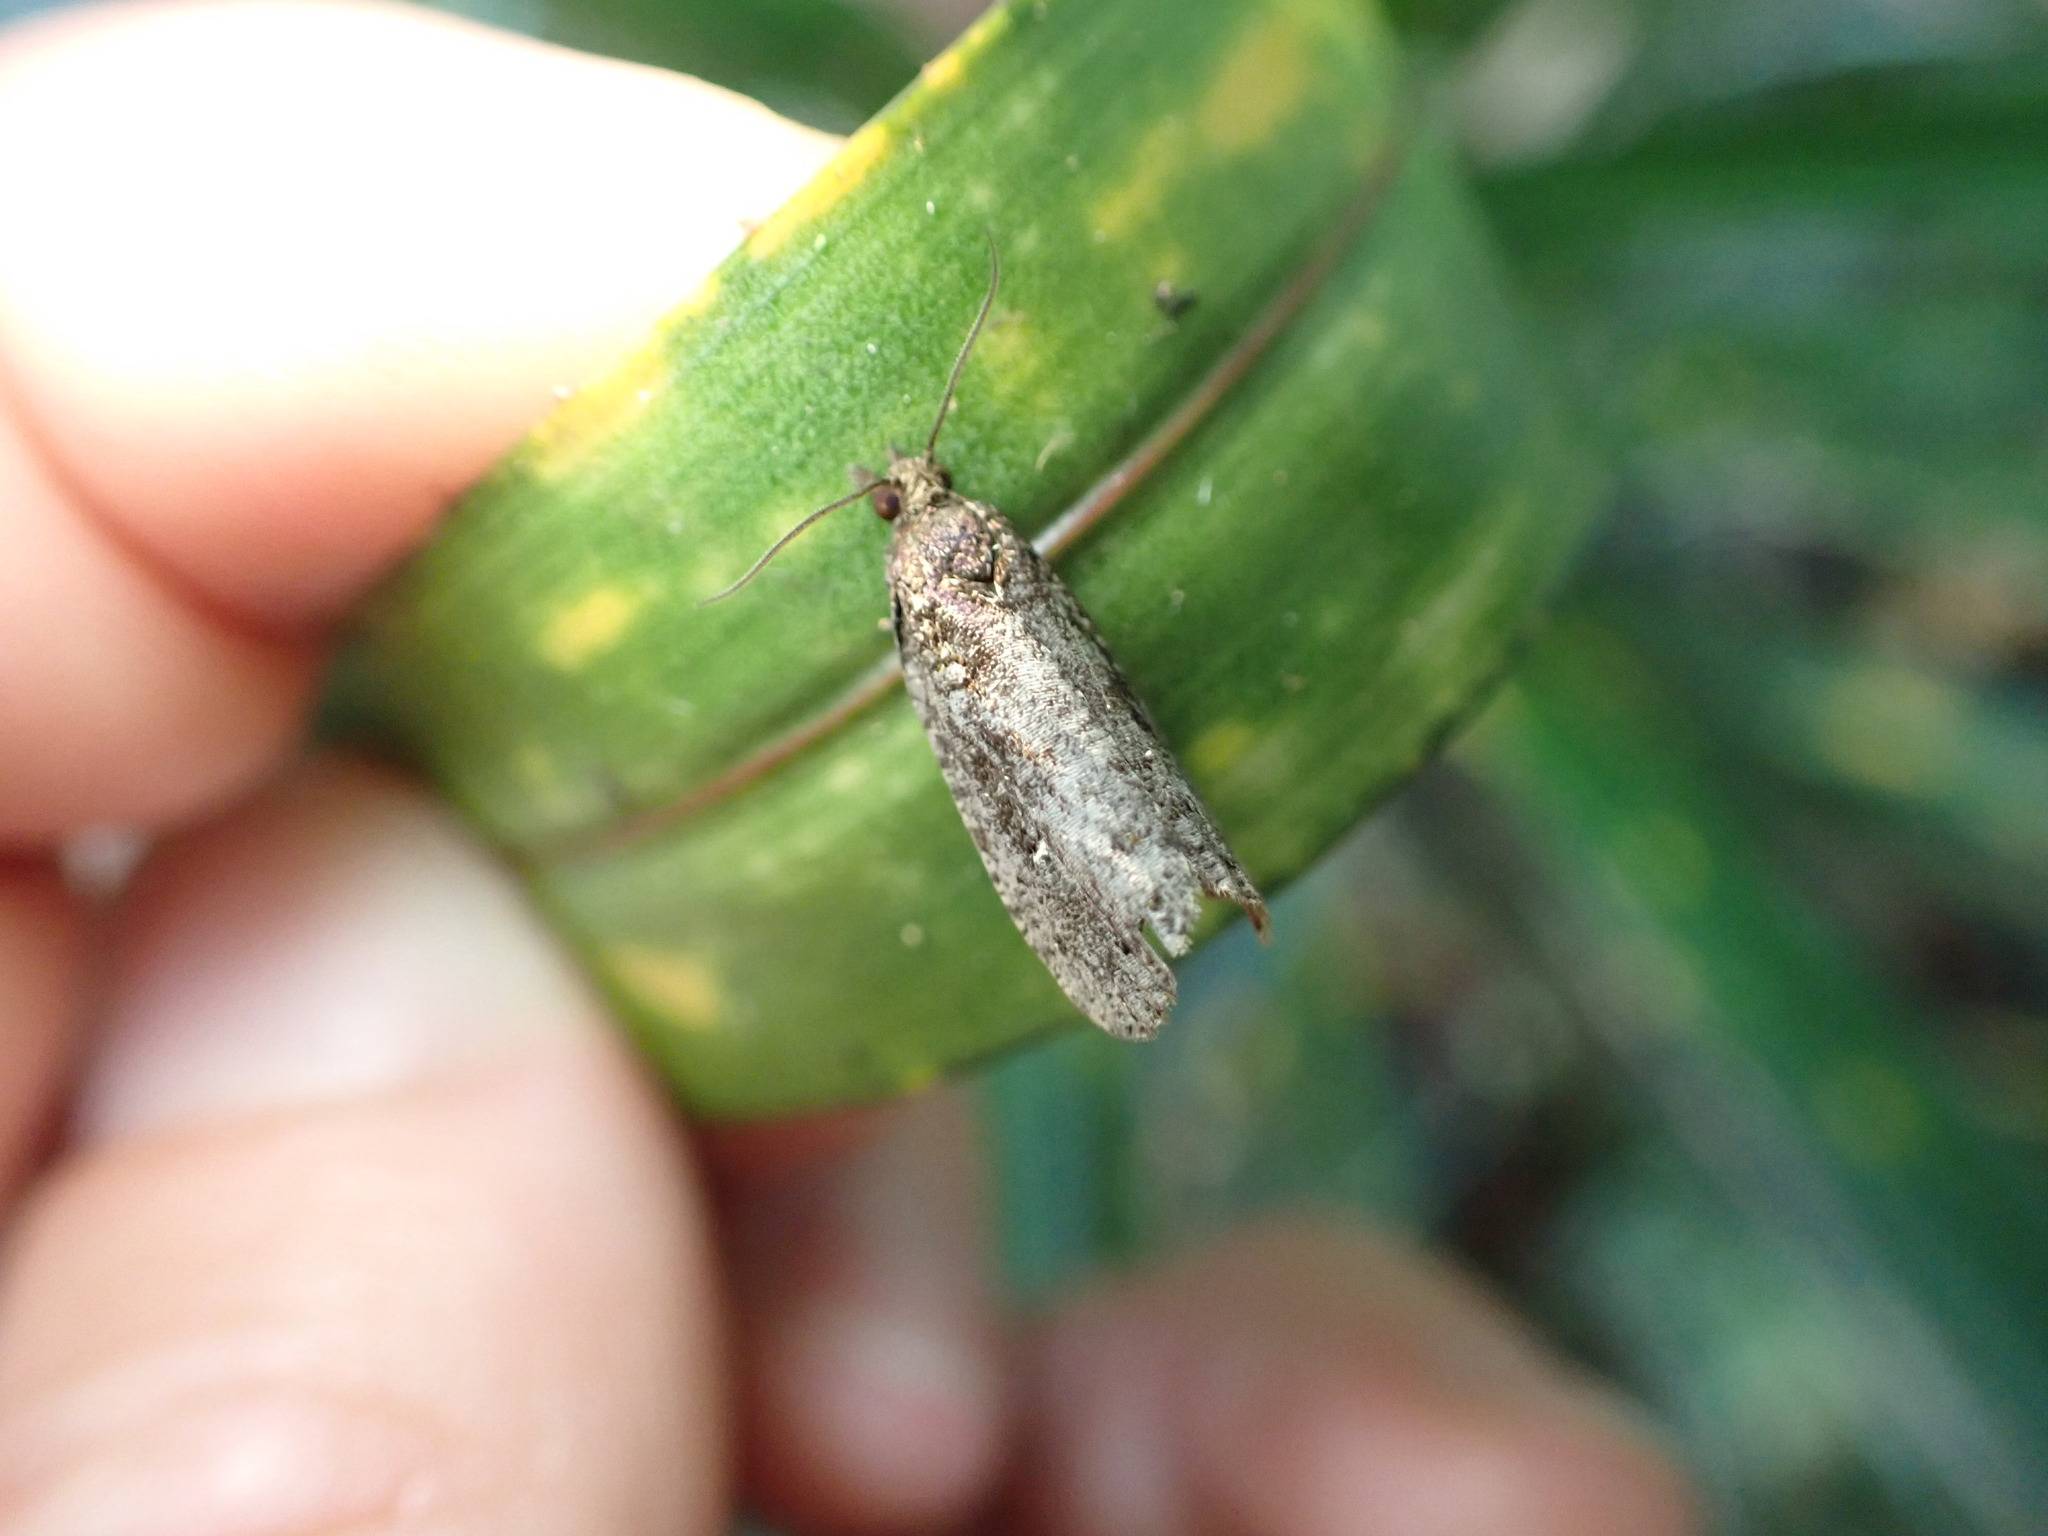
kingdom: Animalia
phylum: Arthropoda
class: Insecta
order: Lepidoptera
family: Tortricidae
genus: Cryptaspasma
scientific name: Cryptaspasma querula
